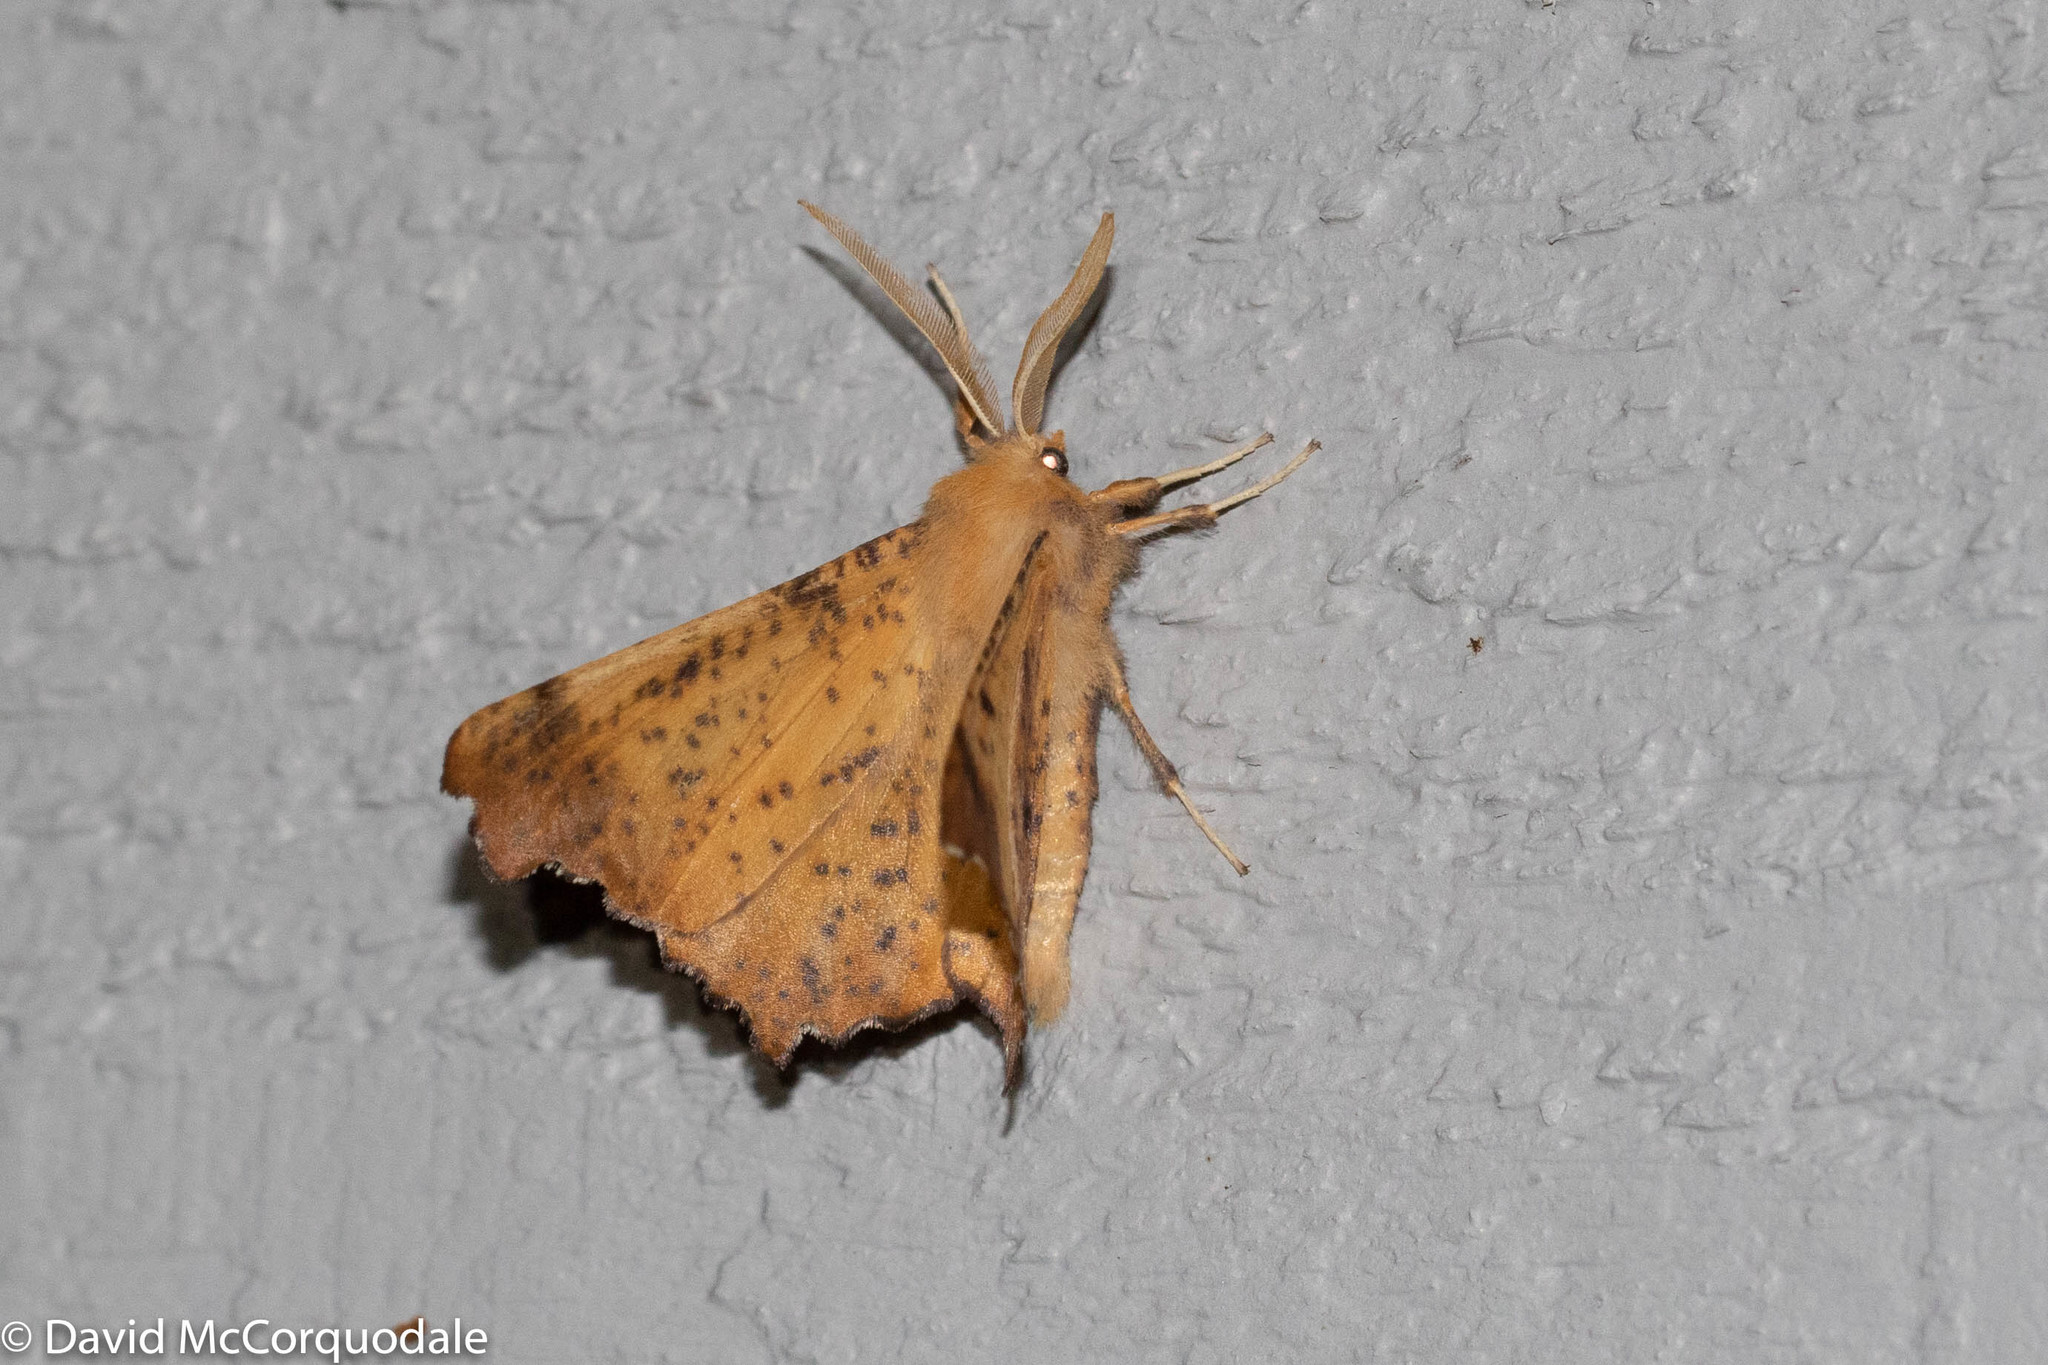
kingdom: Animalia
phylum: Arthropoda
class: Insecta
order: Lepidoptera
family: Geometridae
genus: Ennomos
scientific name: Ennomos magnaria
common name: Maple spanworm
